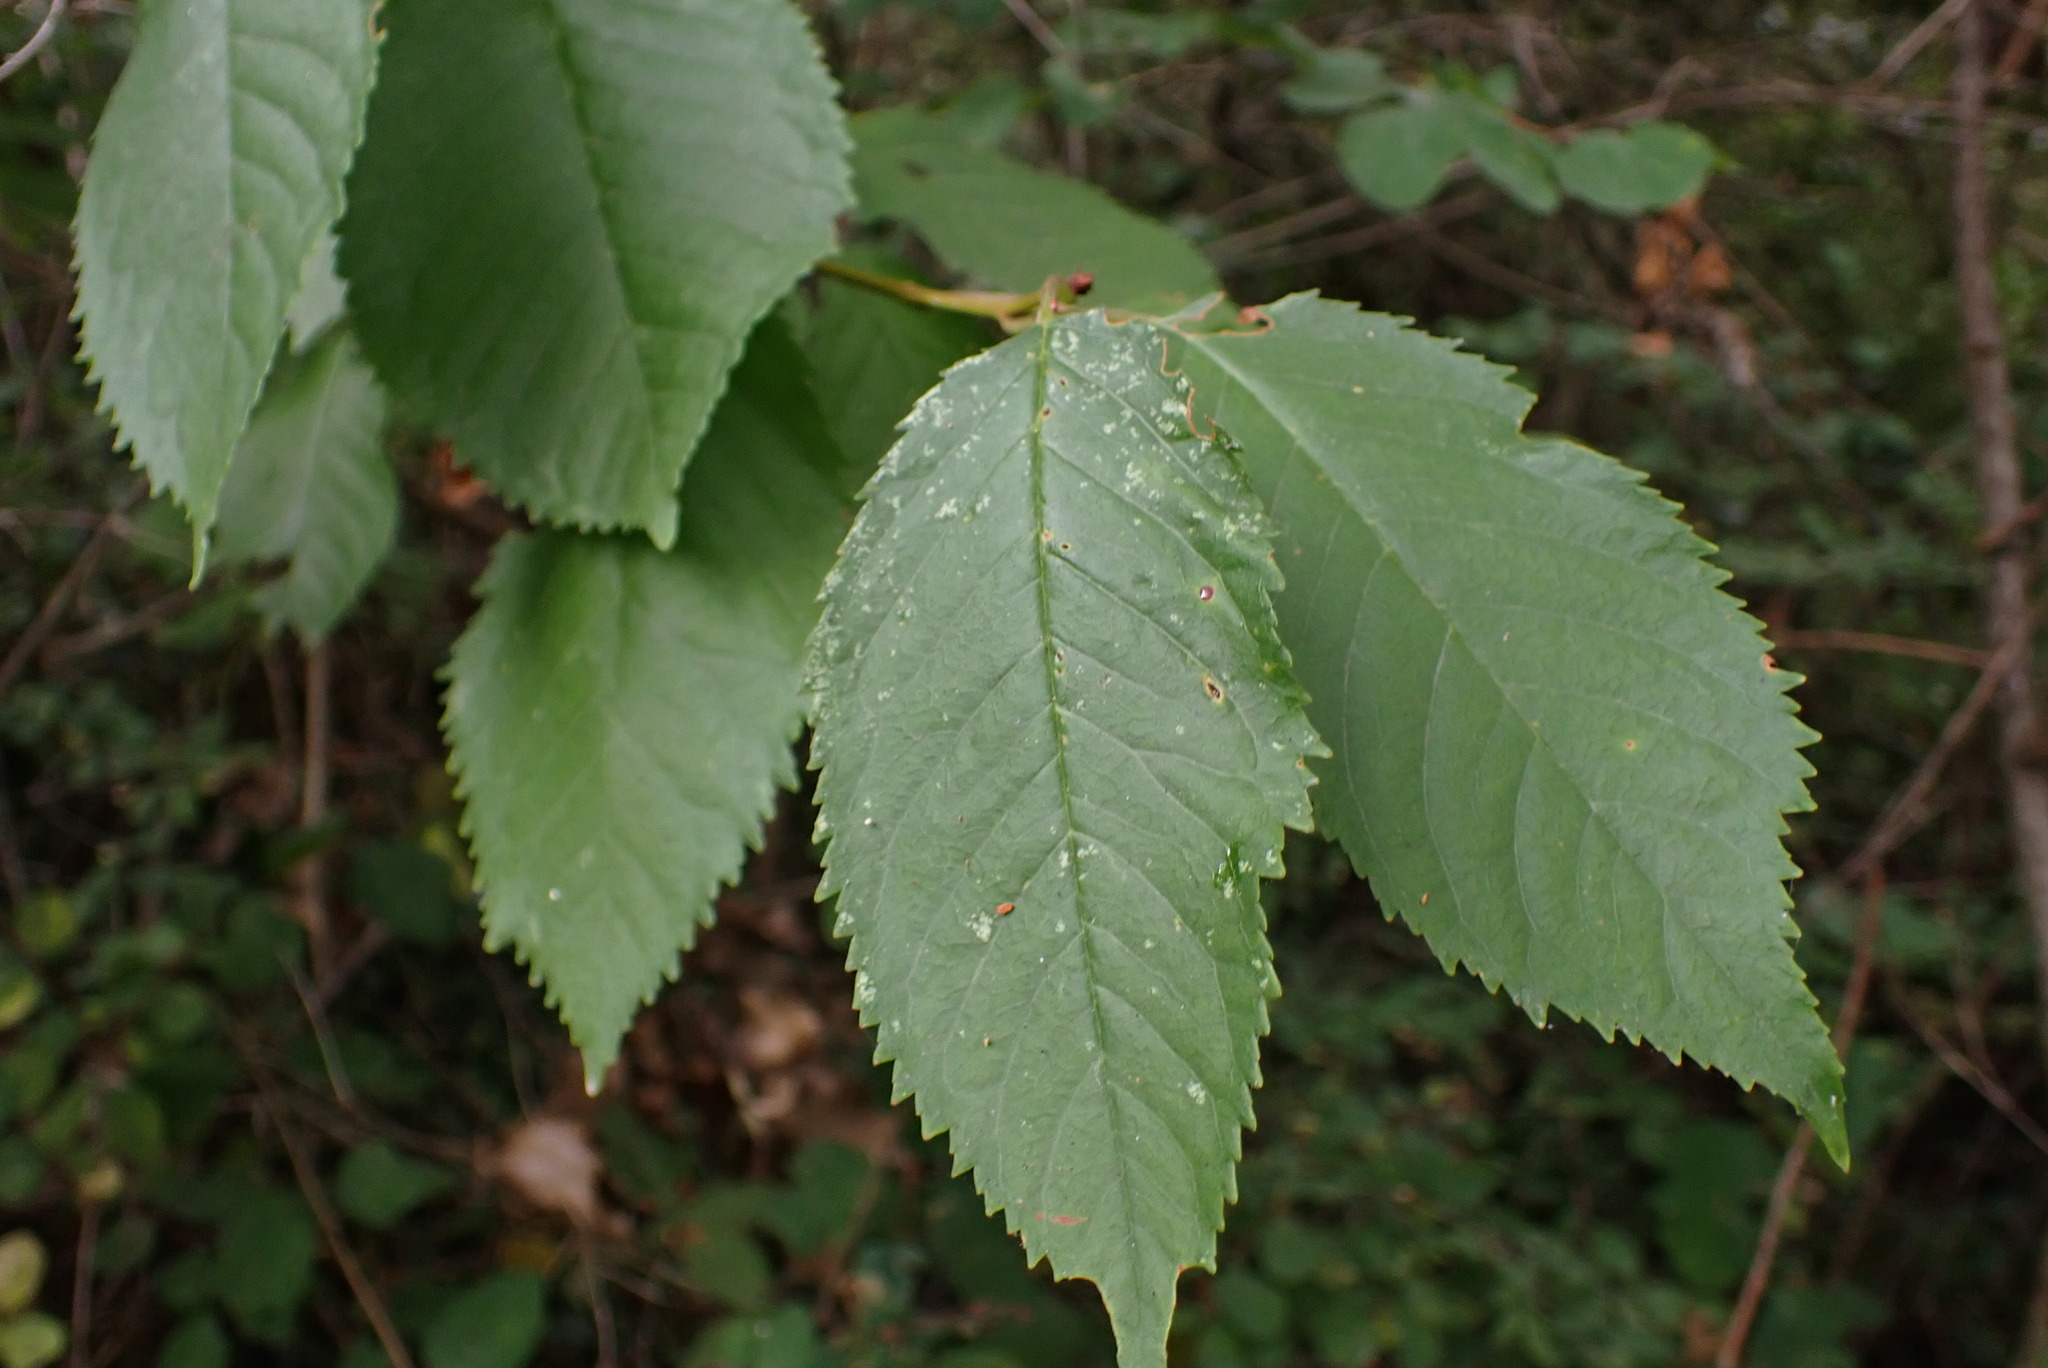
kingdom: Plantae
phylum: Tracheophyta
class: Magnoliopsida
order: Rosales
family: Rosaceae
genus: Prunus
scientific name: Prunus avium
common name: Sweet cherry
